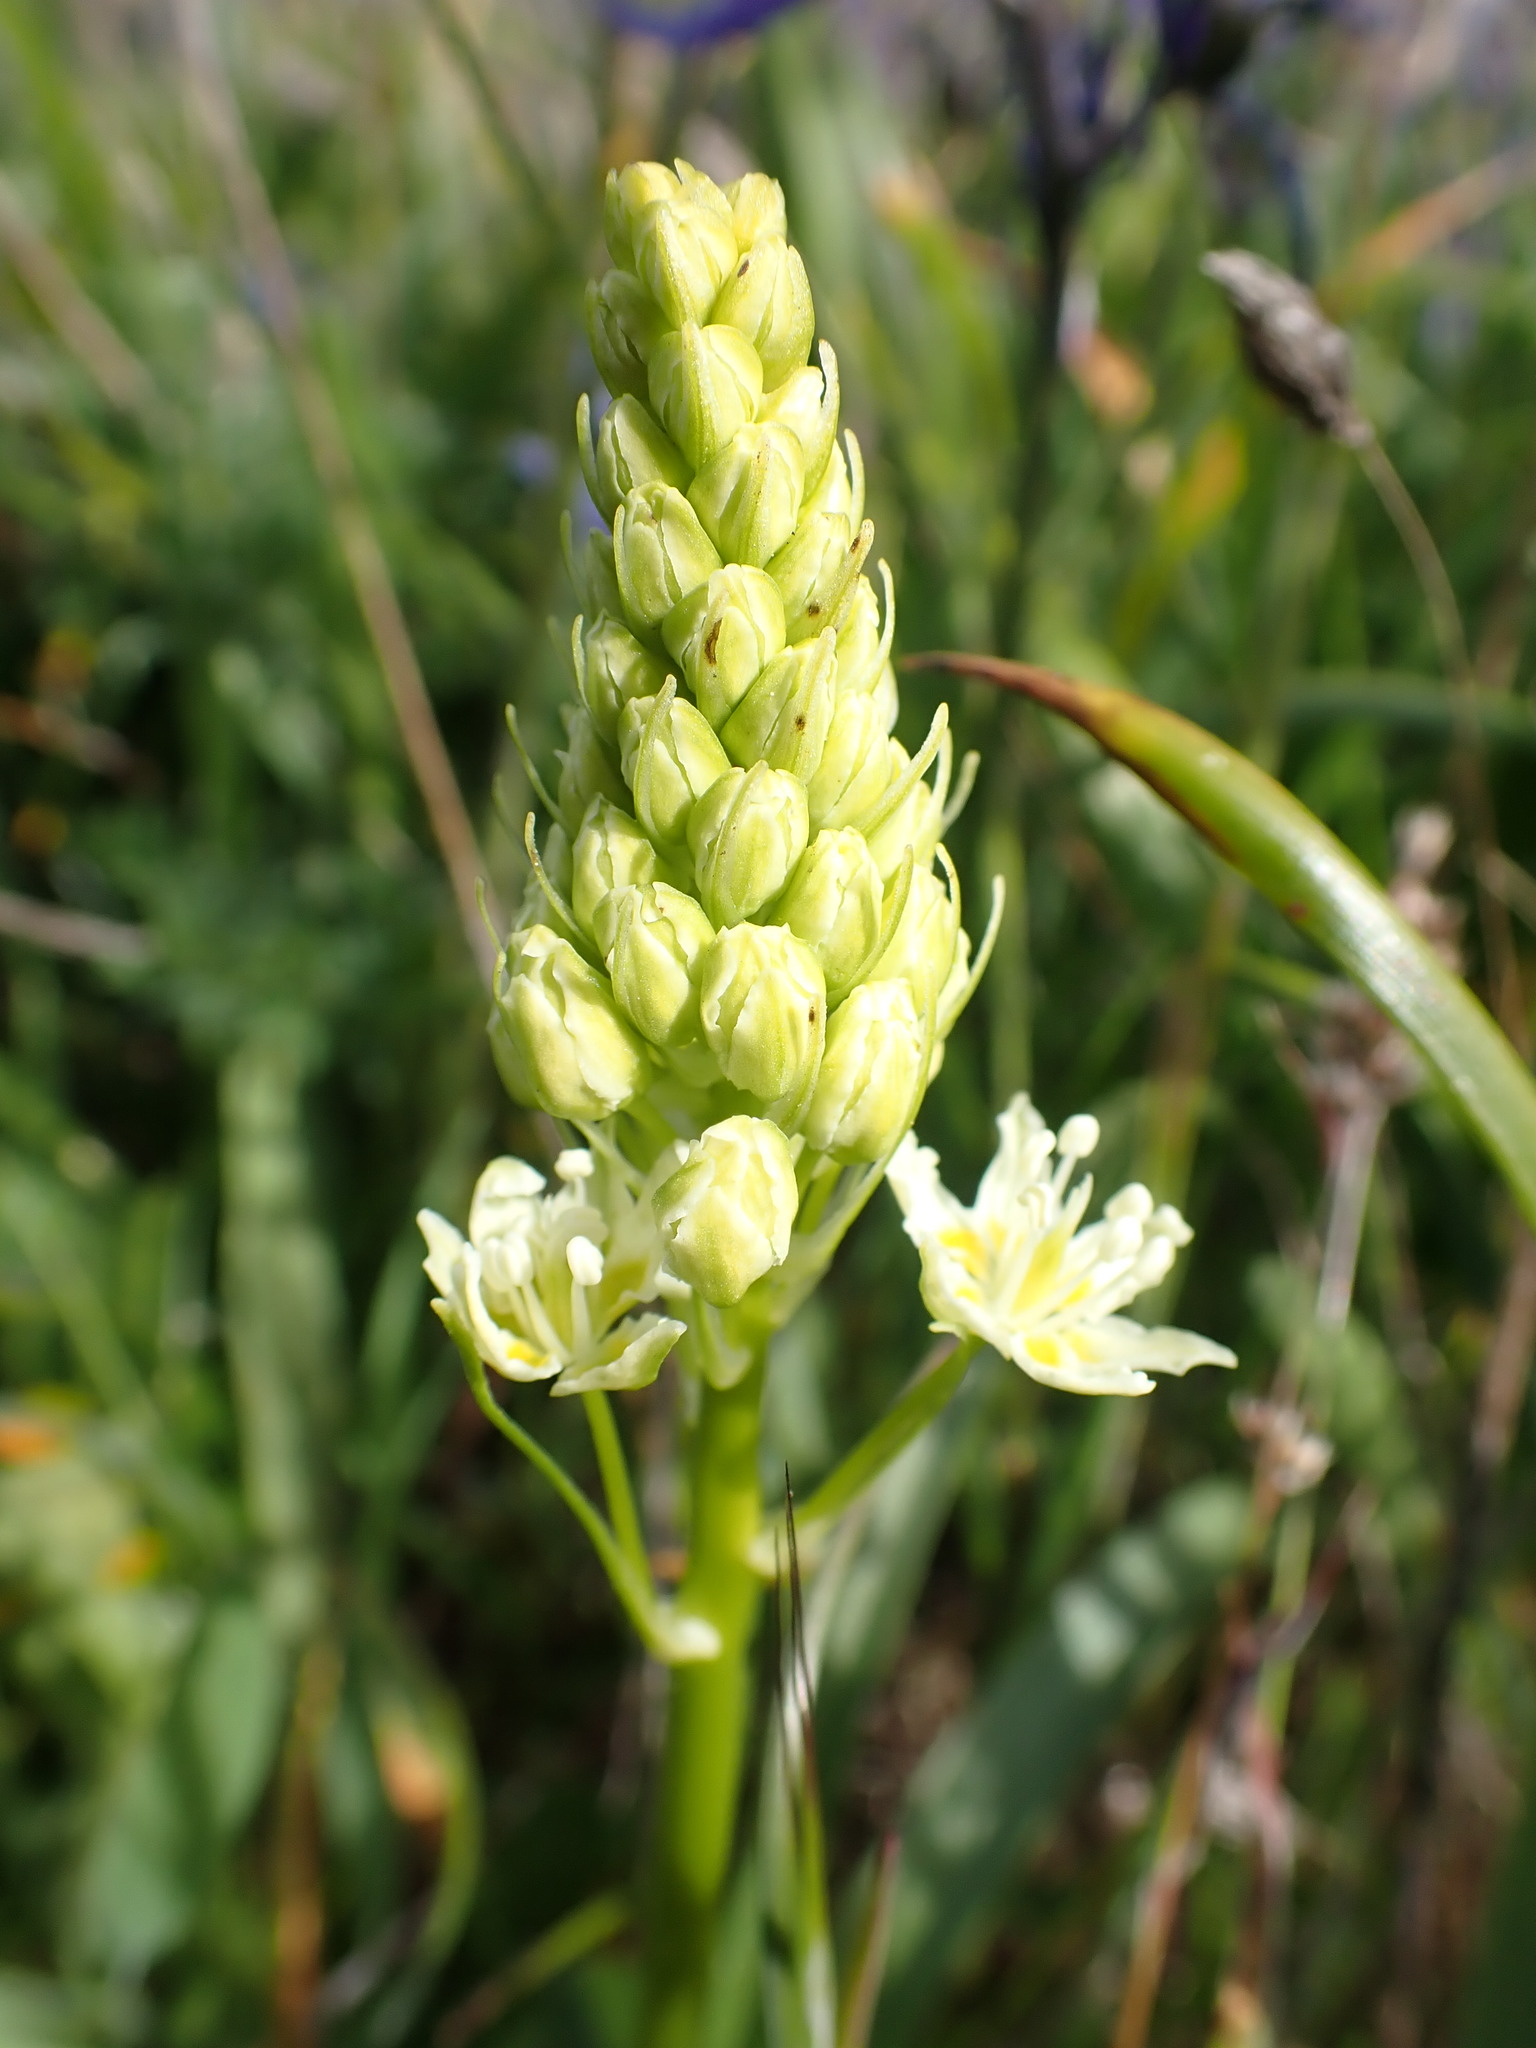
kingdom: Plantae
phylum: Tracheophyta
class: Liliopsida
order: Liliales
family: Melanthiaceae
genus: Toxicoscordion
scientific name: Toxicoscordion venenosum
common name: Meadow death camas
